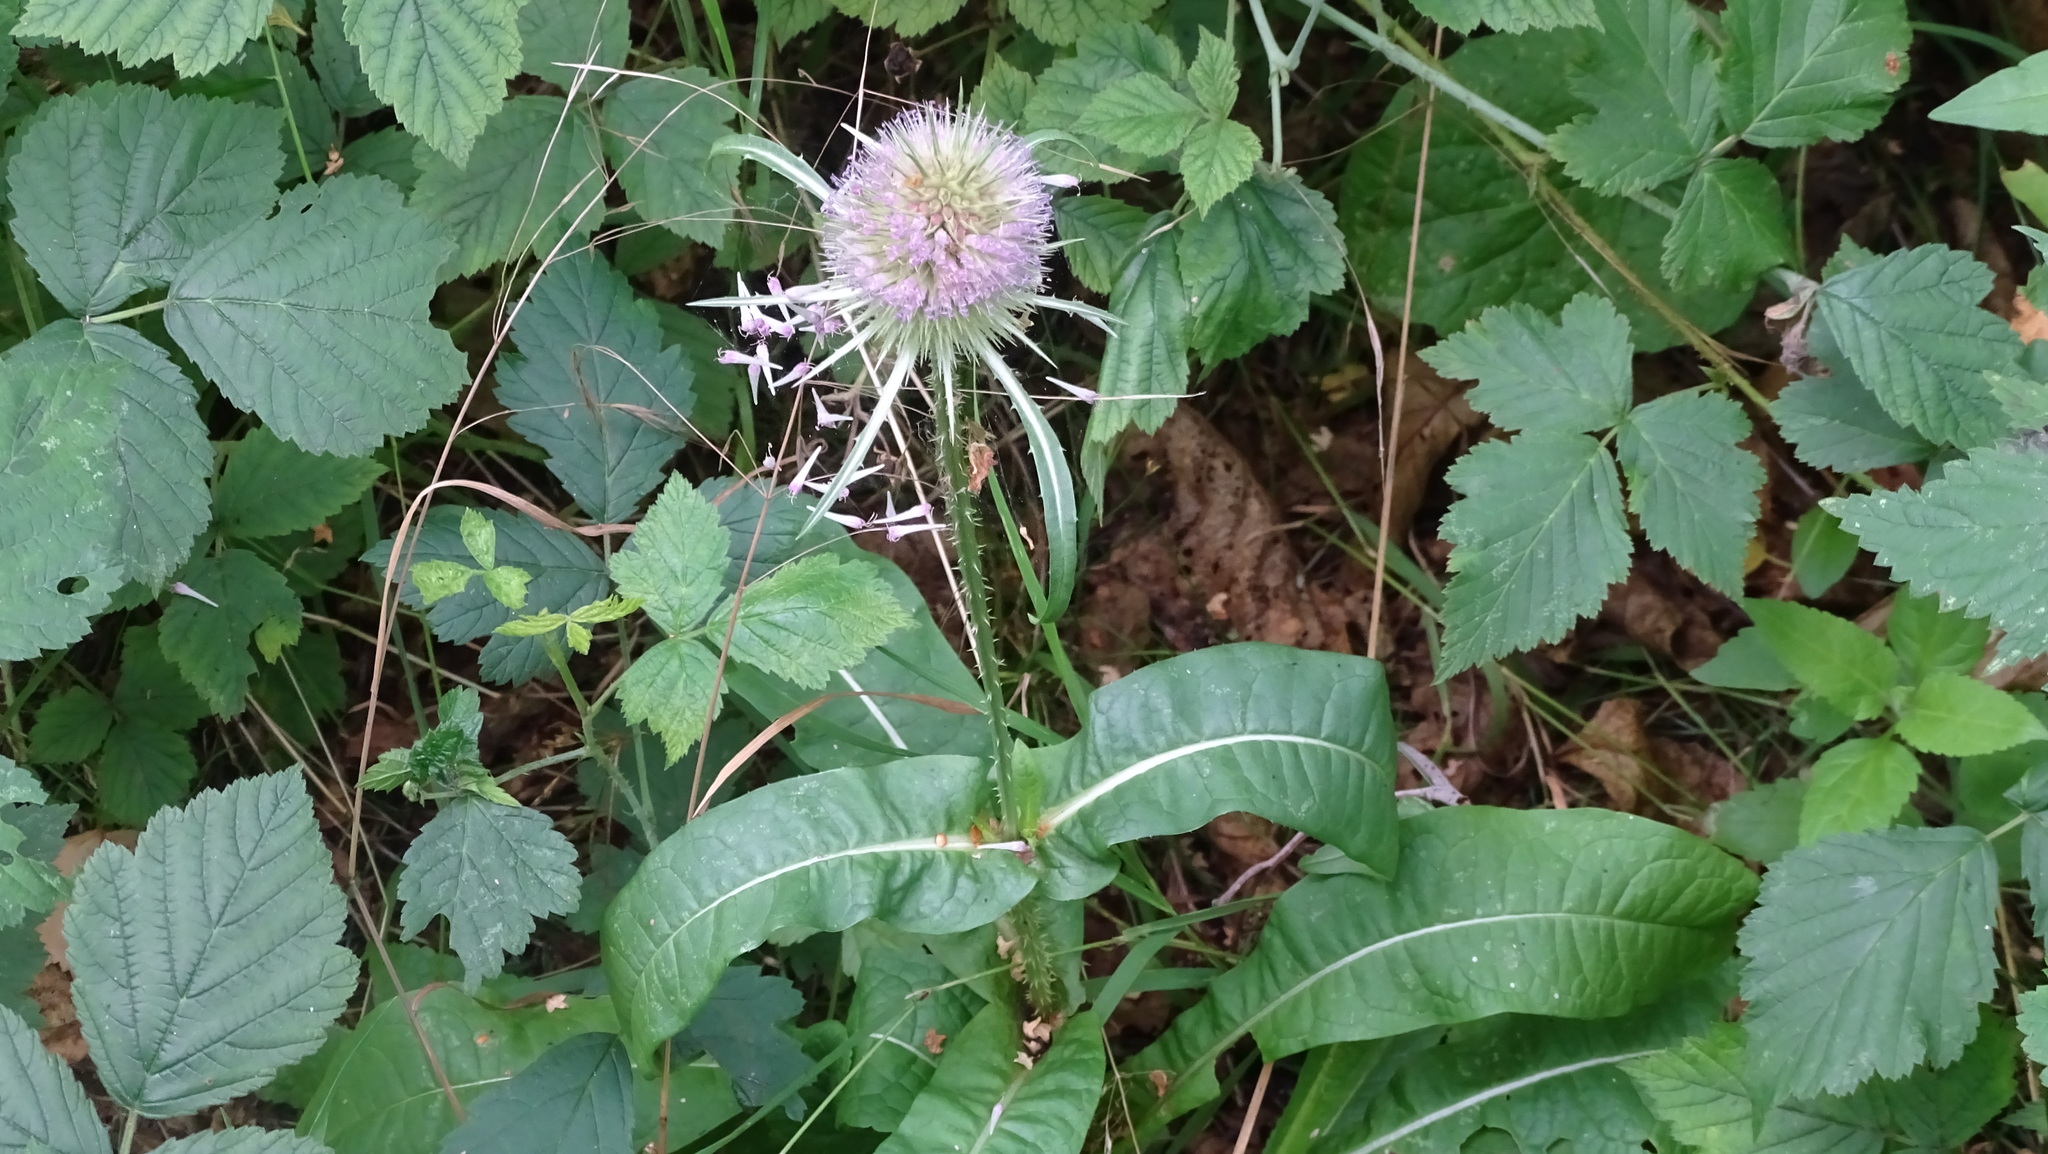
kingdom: Plantae
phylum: Tracheophyta
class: Magnoliopsida
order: Dipsacales
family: Caprifoliaceae
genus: Dipsacus
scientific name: Dipsacus fullonum
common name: Teasel
